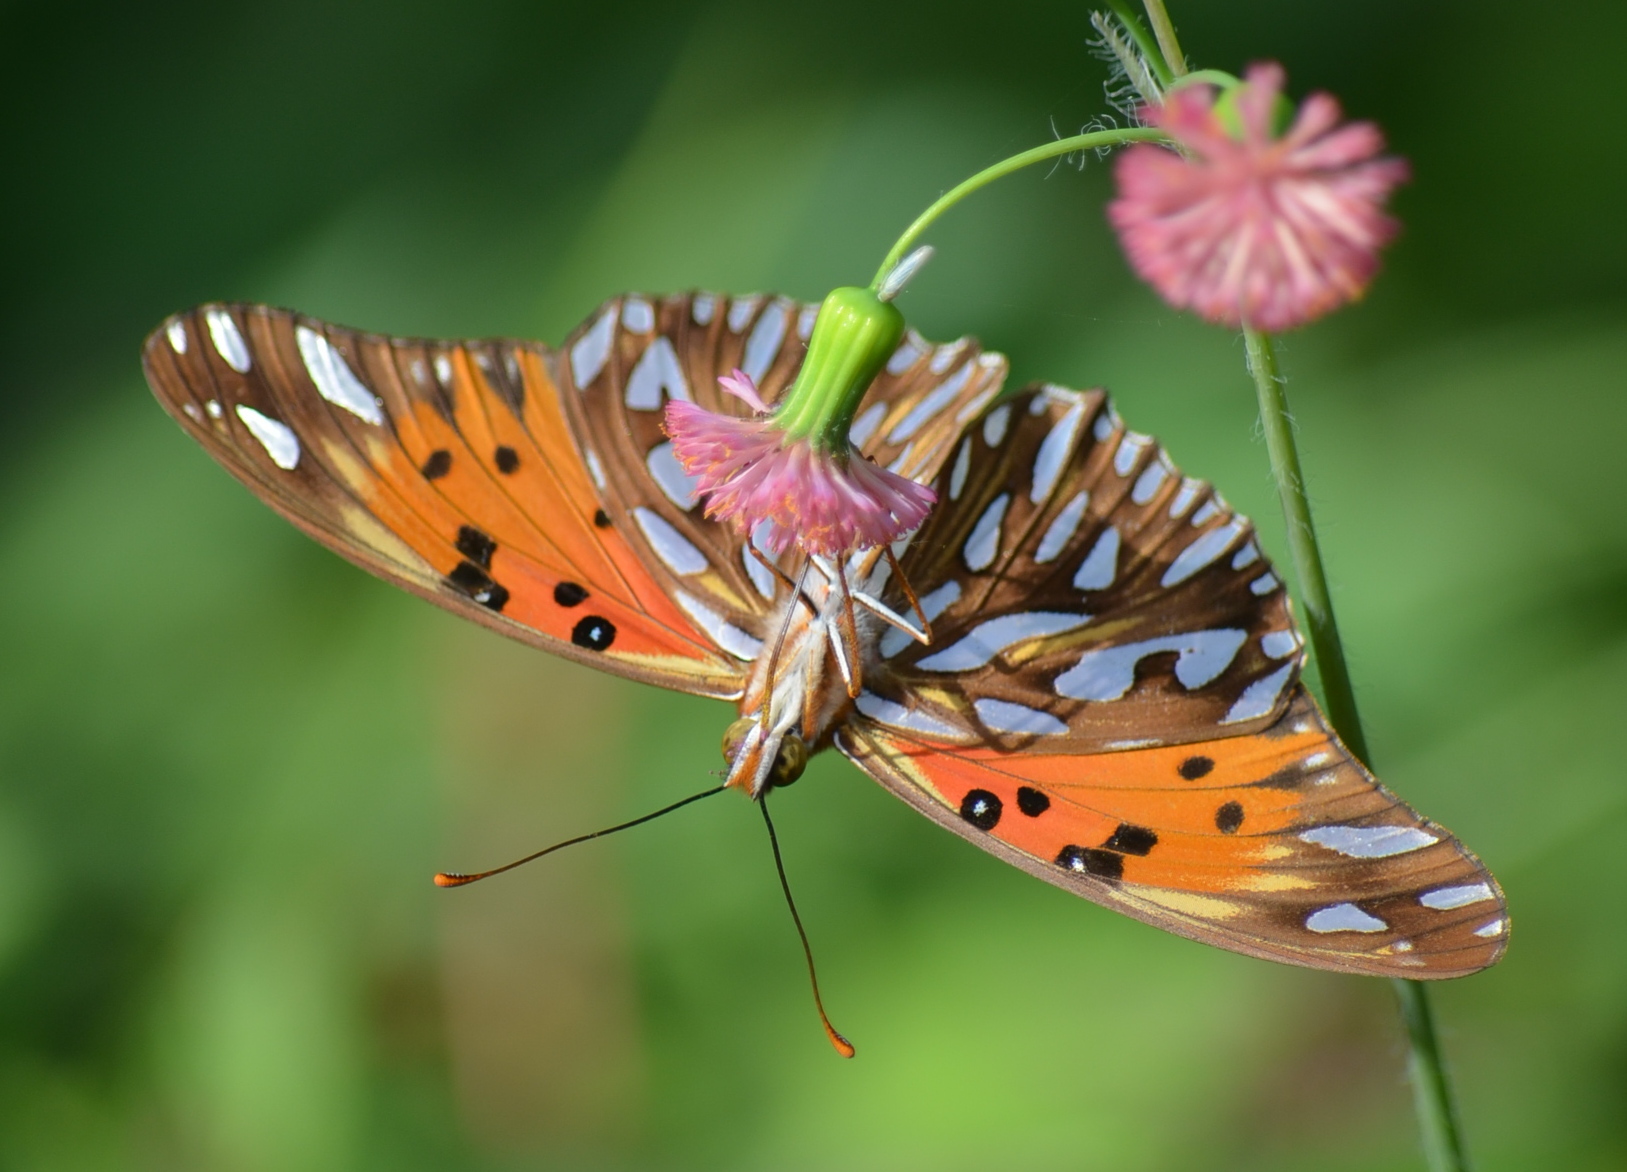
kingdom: Animalia
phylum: Arthropoda
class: Insecta
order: Lepidoptera
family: Nymphalidae
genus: Dione
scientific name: Dione vanillae
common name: Gulf fritillary
